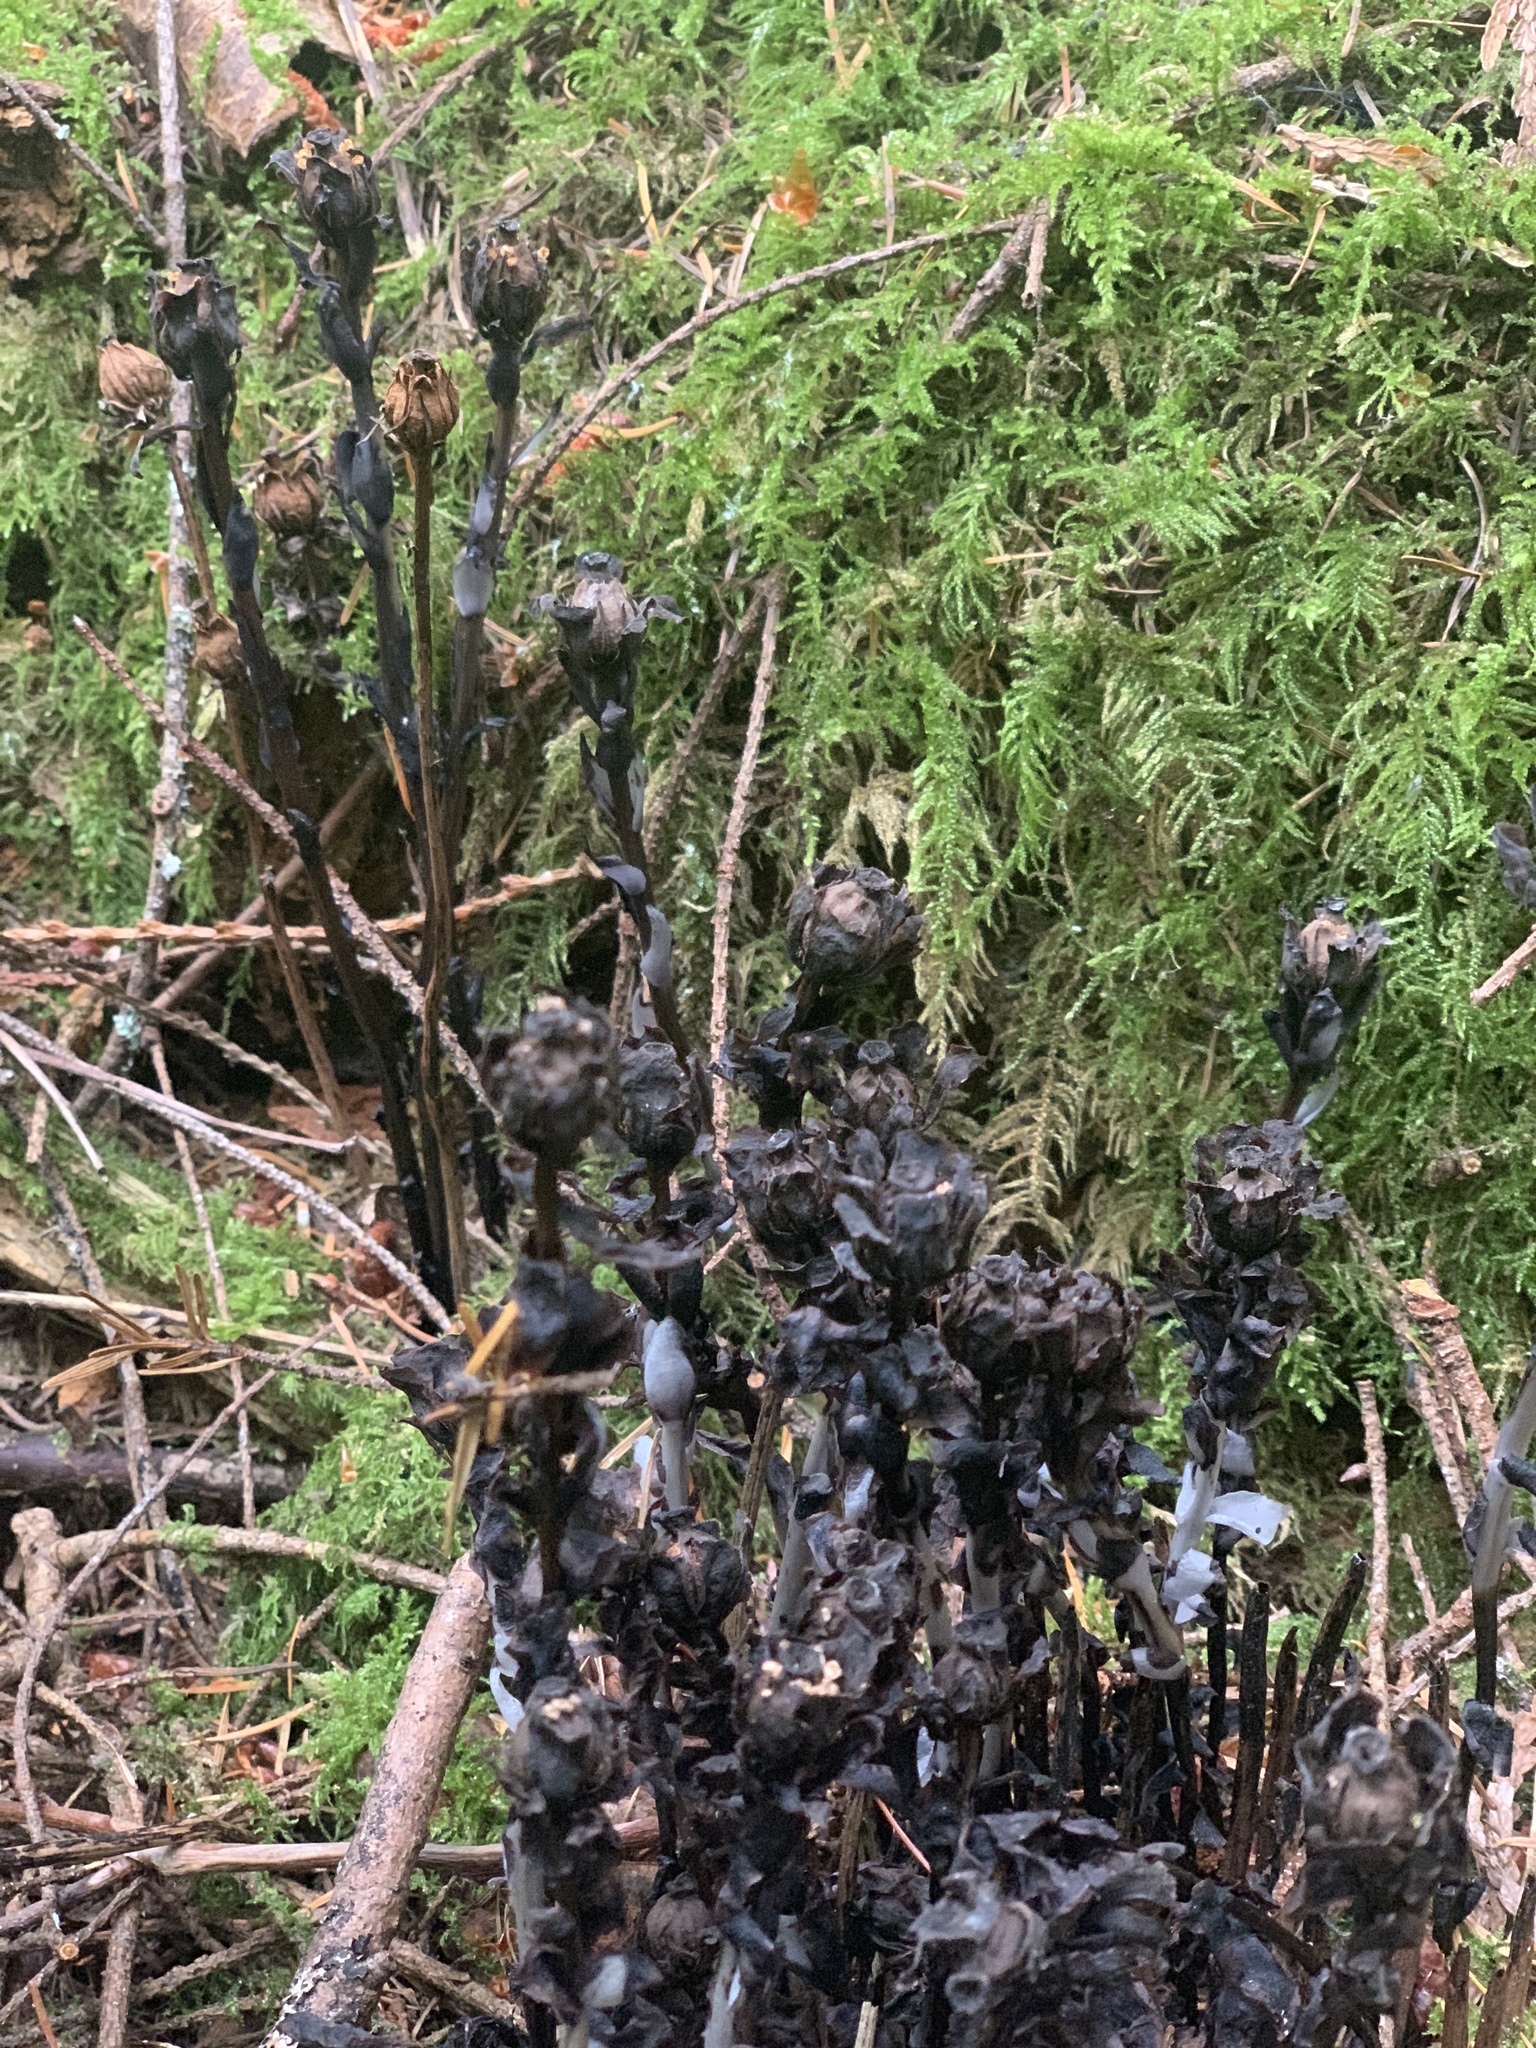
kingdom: Plantae
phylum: Tracheophyta
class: Magnoliopsida
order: Ericales
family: Ericaceae
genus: Monotropa
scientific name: Monotropa uniflora
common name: Convulsion root
